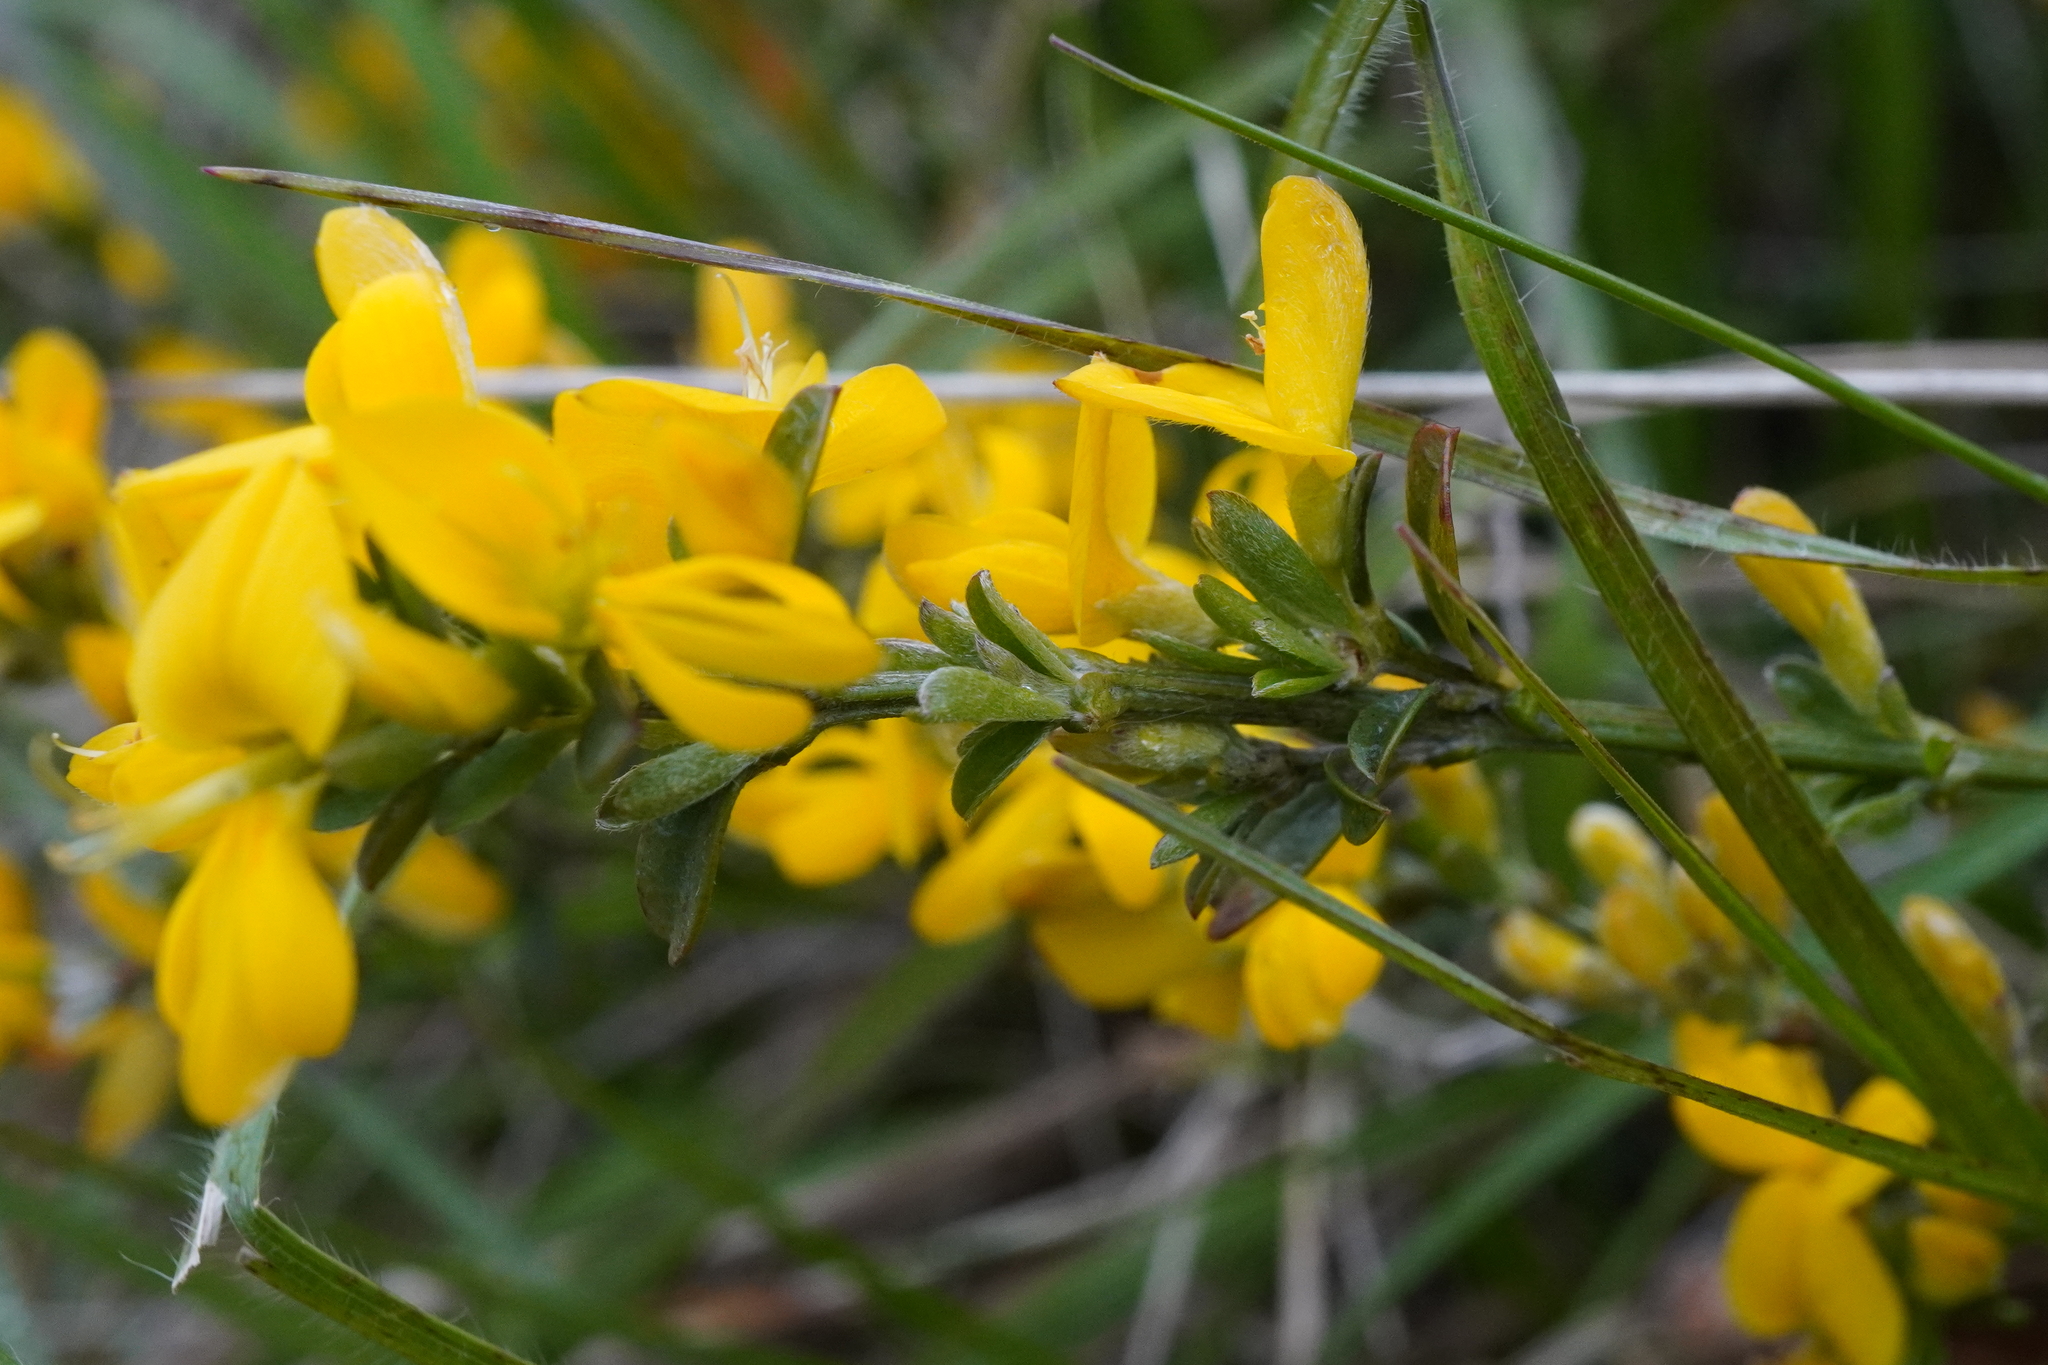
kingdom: Plantae
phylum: Tracheophyta
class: Magnoliopsida
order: Fabales
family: Fabaceae
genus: Genista
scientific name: Genista pilosa
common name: Hairy greenweed
